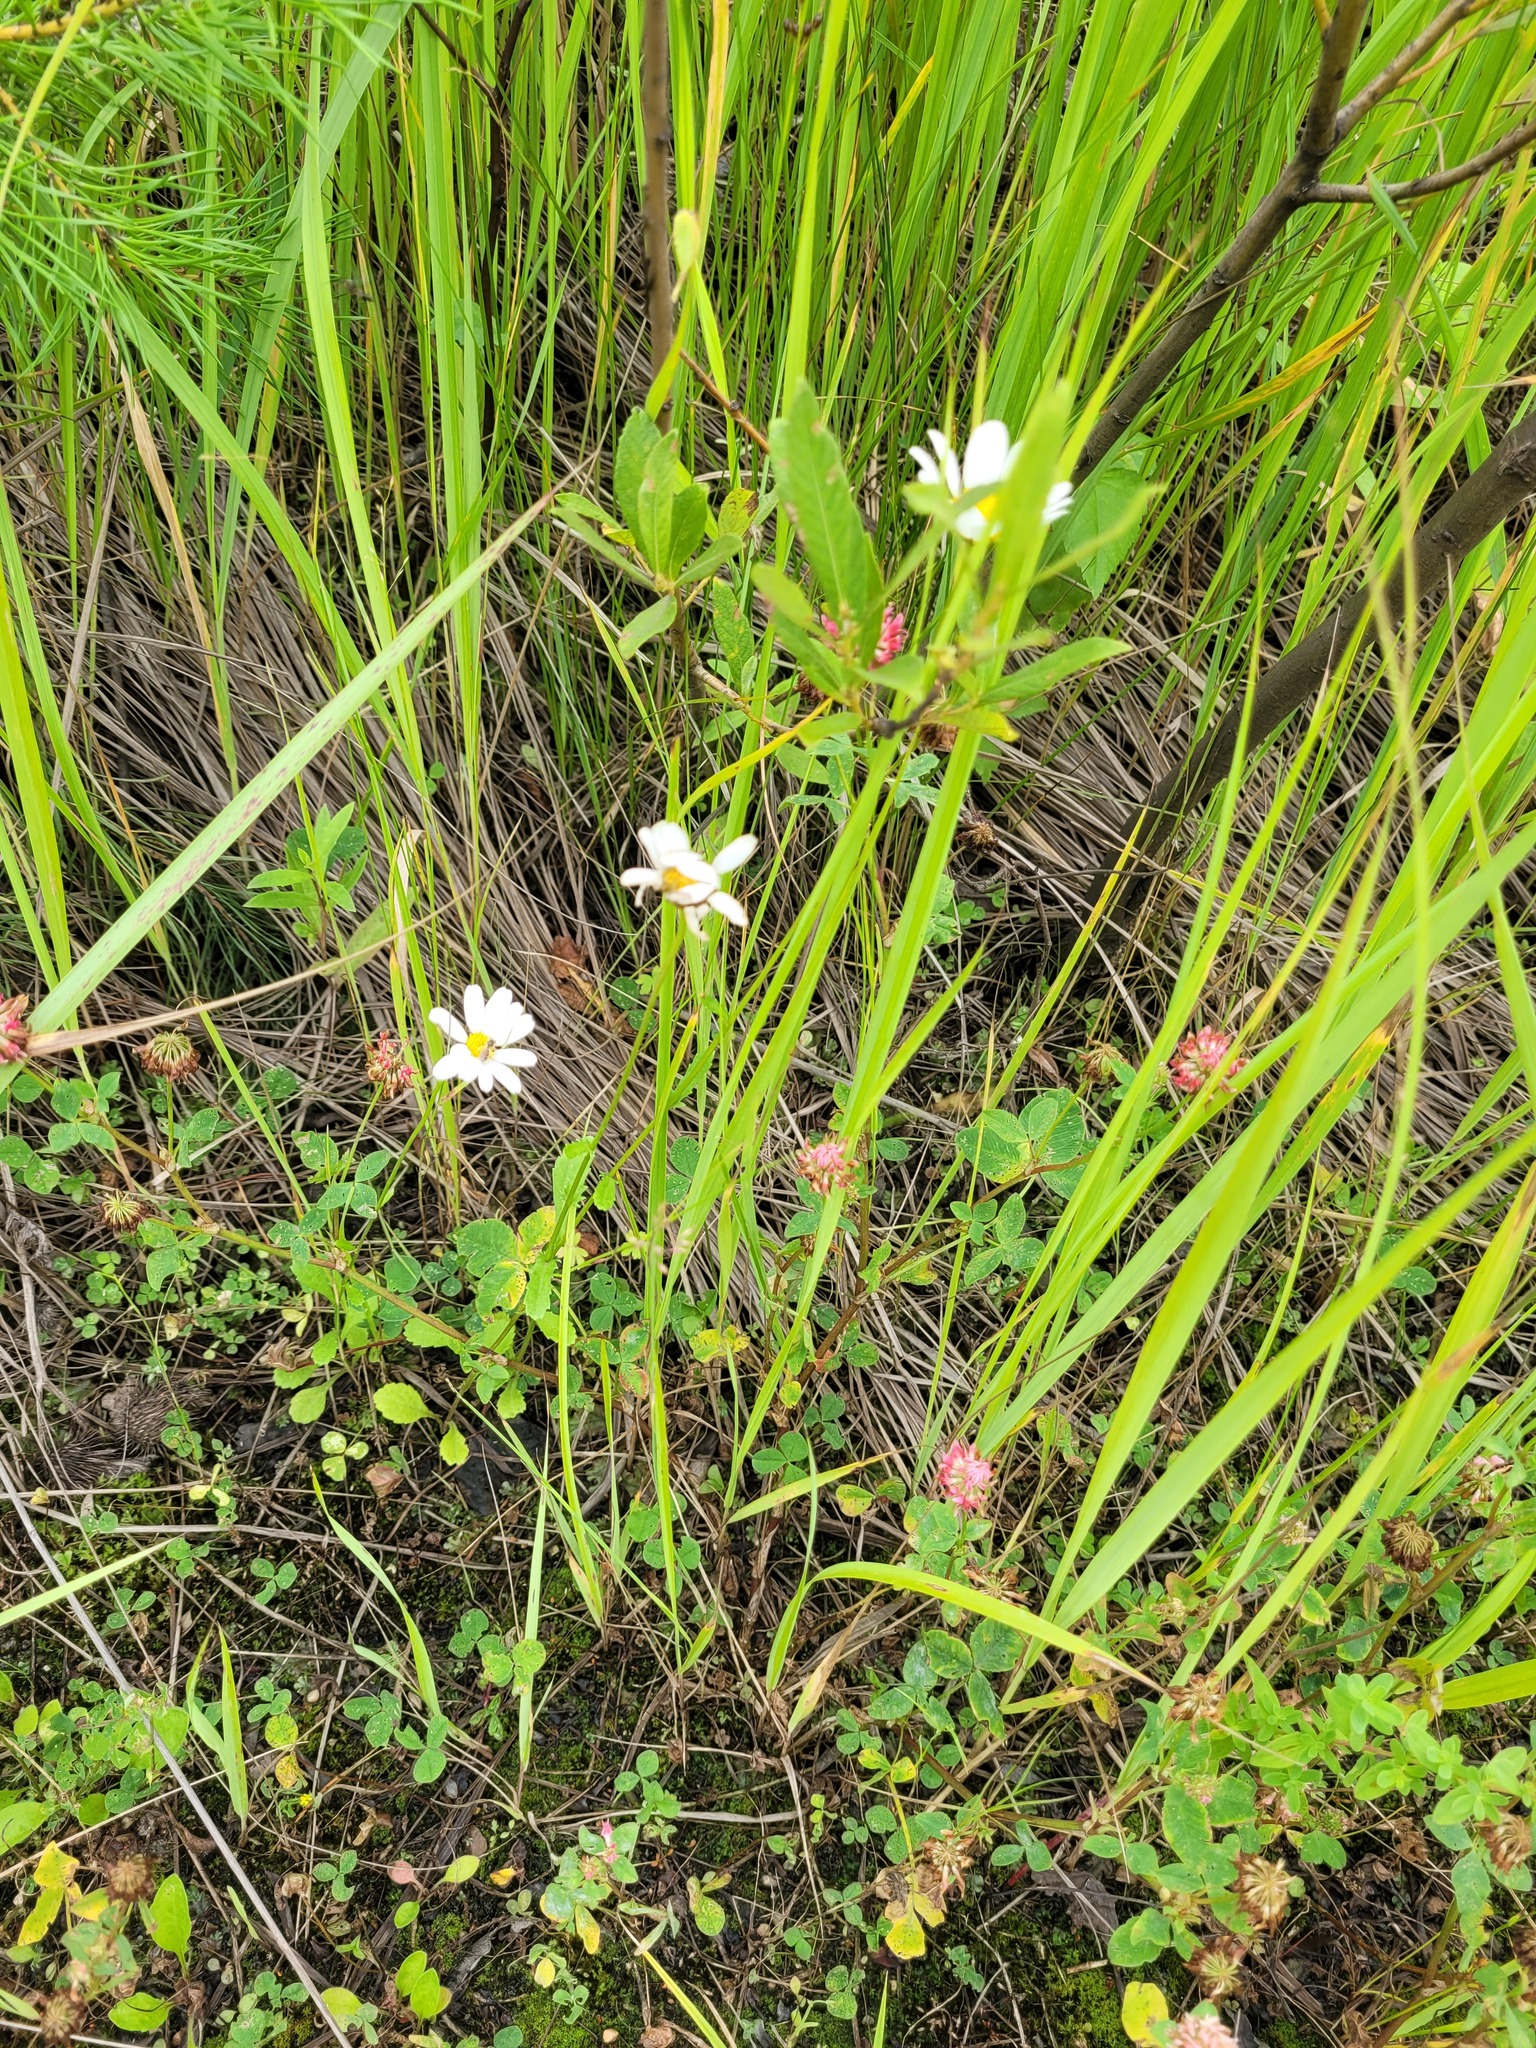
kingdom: Plantae
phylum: Tracheophyta
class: Magnoliopsida
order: Asterales
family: Asteraceae
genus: Leucanthemum
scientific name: Leucanthemum vulgare
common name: Oxeye daisy
